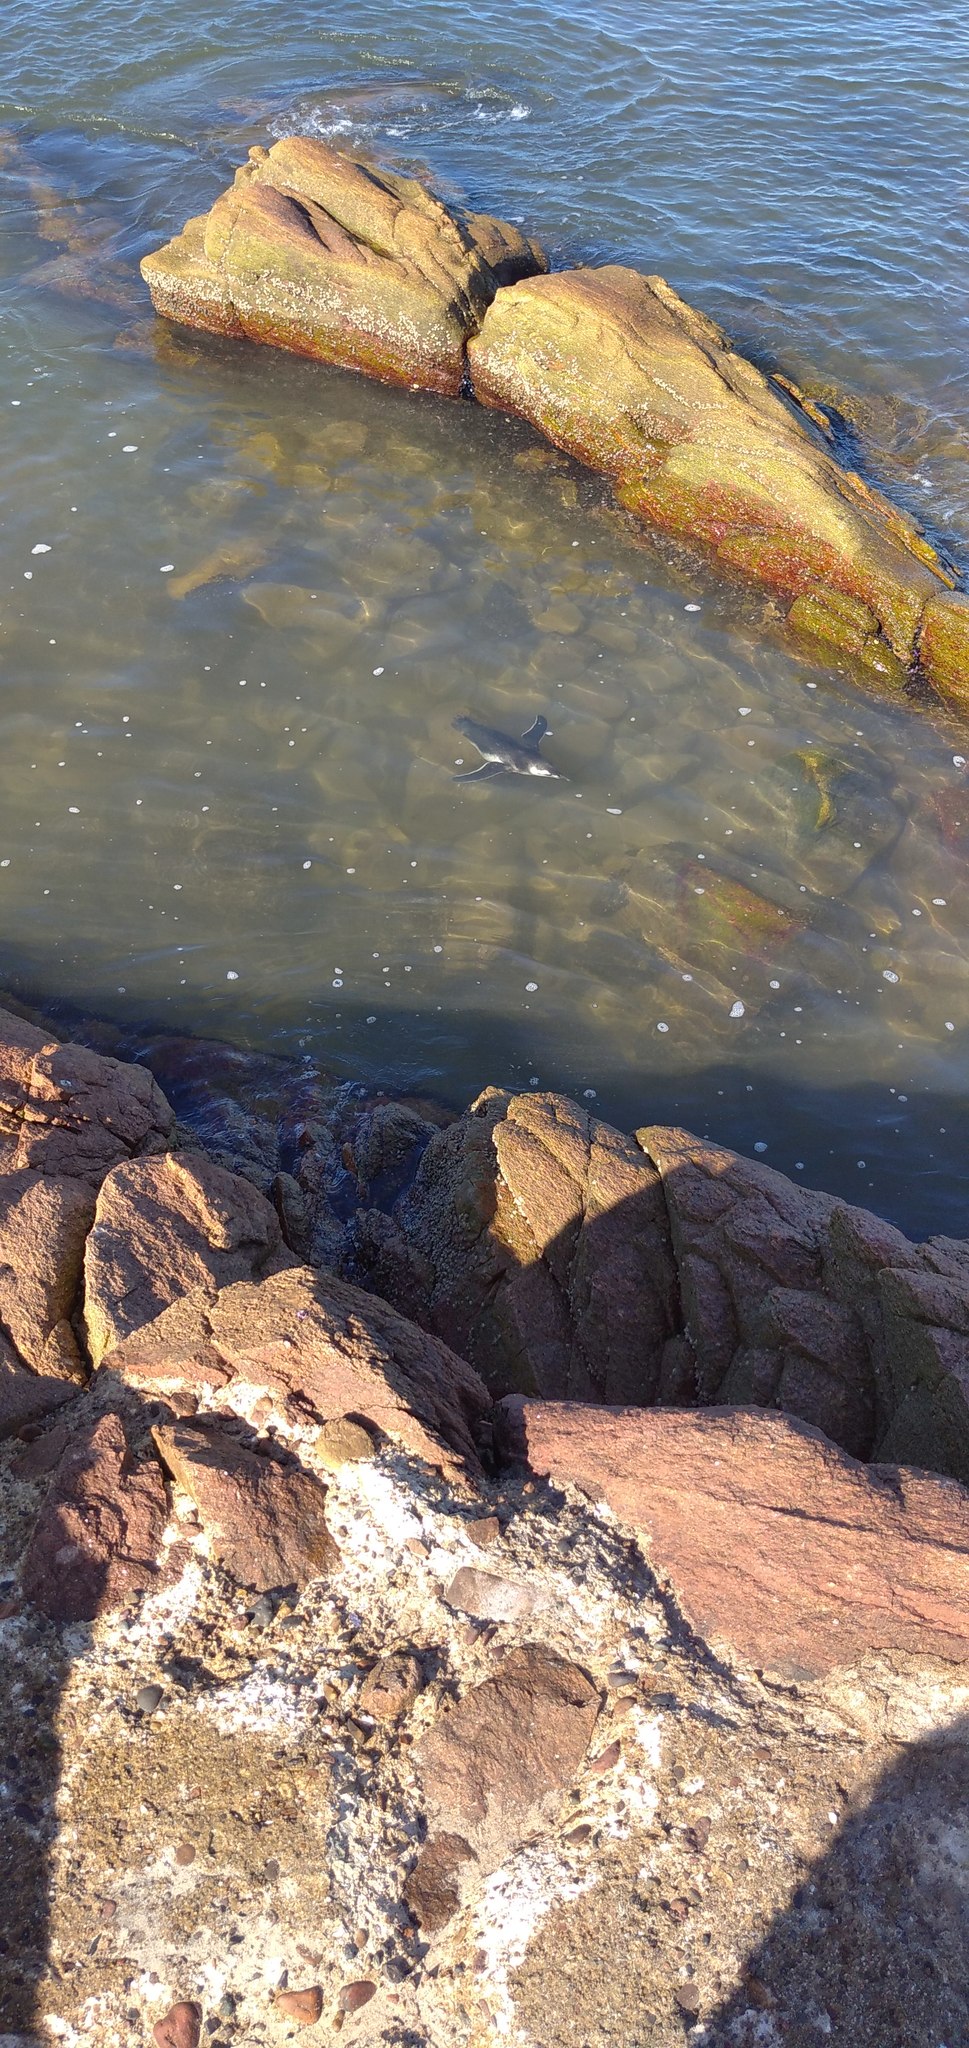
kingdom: Animalia
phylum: Chordata
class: Aves
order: Sphenisciformes
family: Spheniscidae
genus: Spheniscus
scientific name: Spheniscus magellanicus
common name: Magellanic penguin
